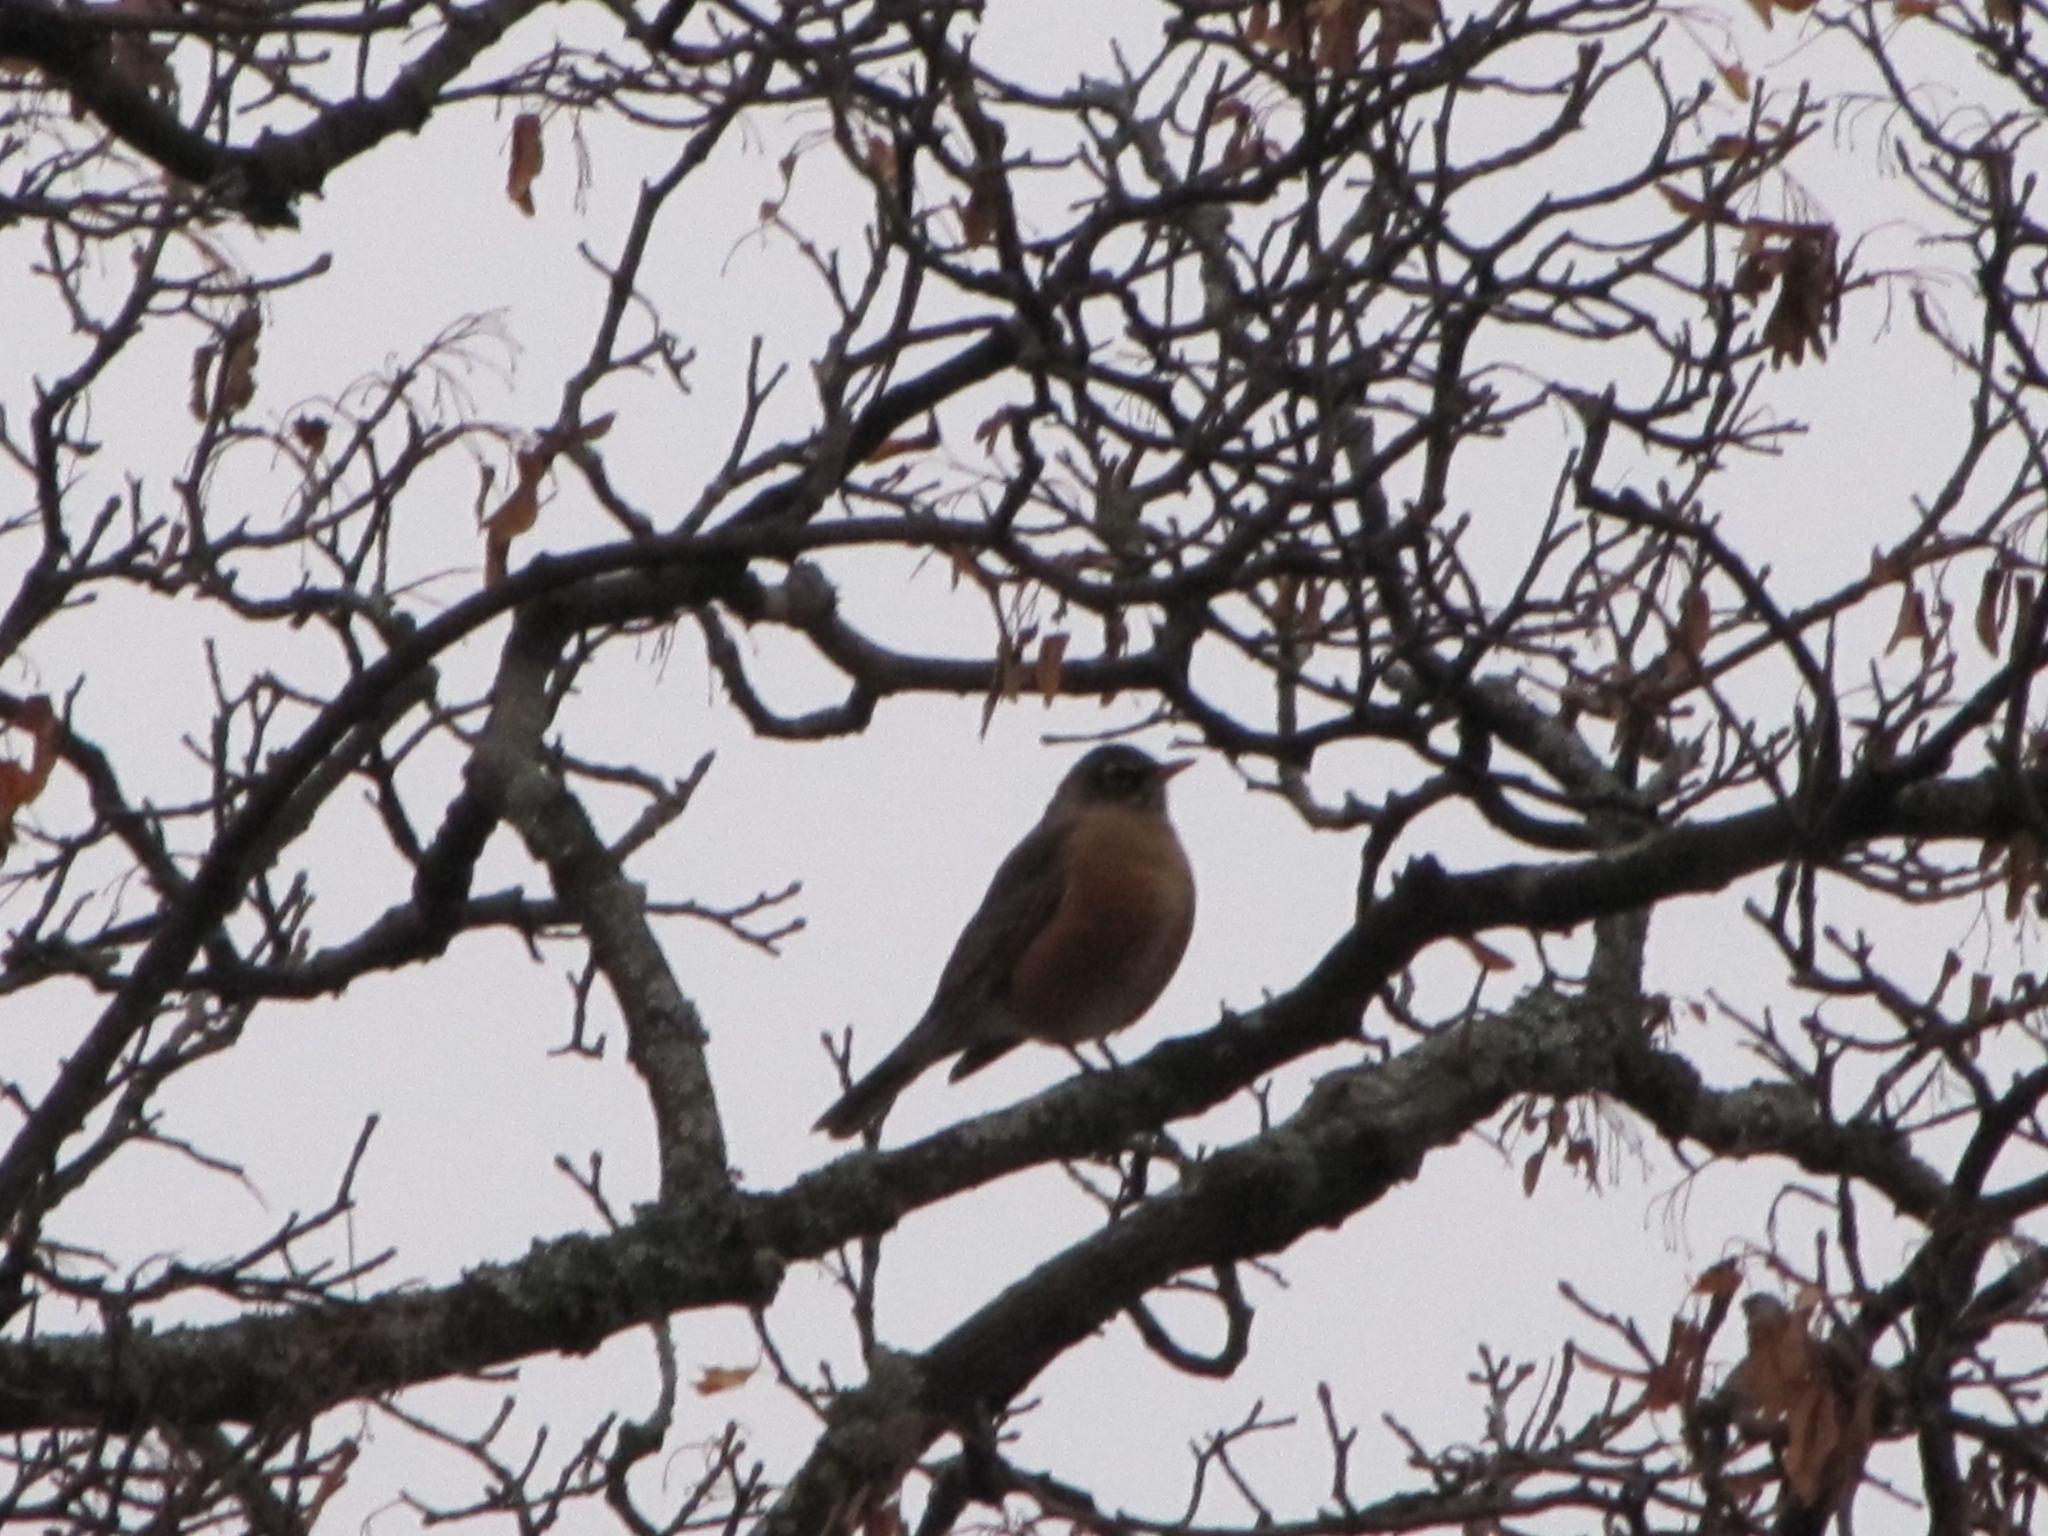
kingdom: Animalia
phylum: Chordata
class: Aves
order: Passeriformes
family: Turdidae
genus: Turdus
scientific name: Turdus migratorius
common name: American robin
